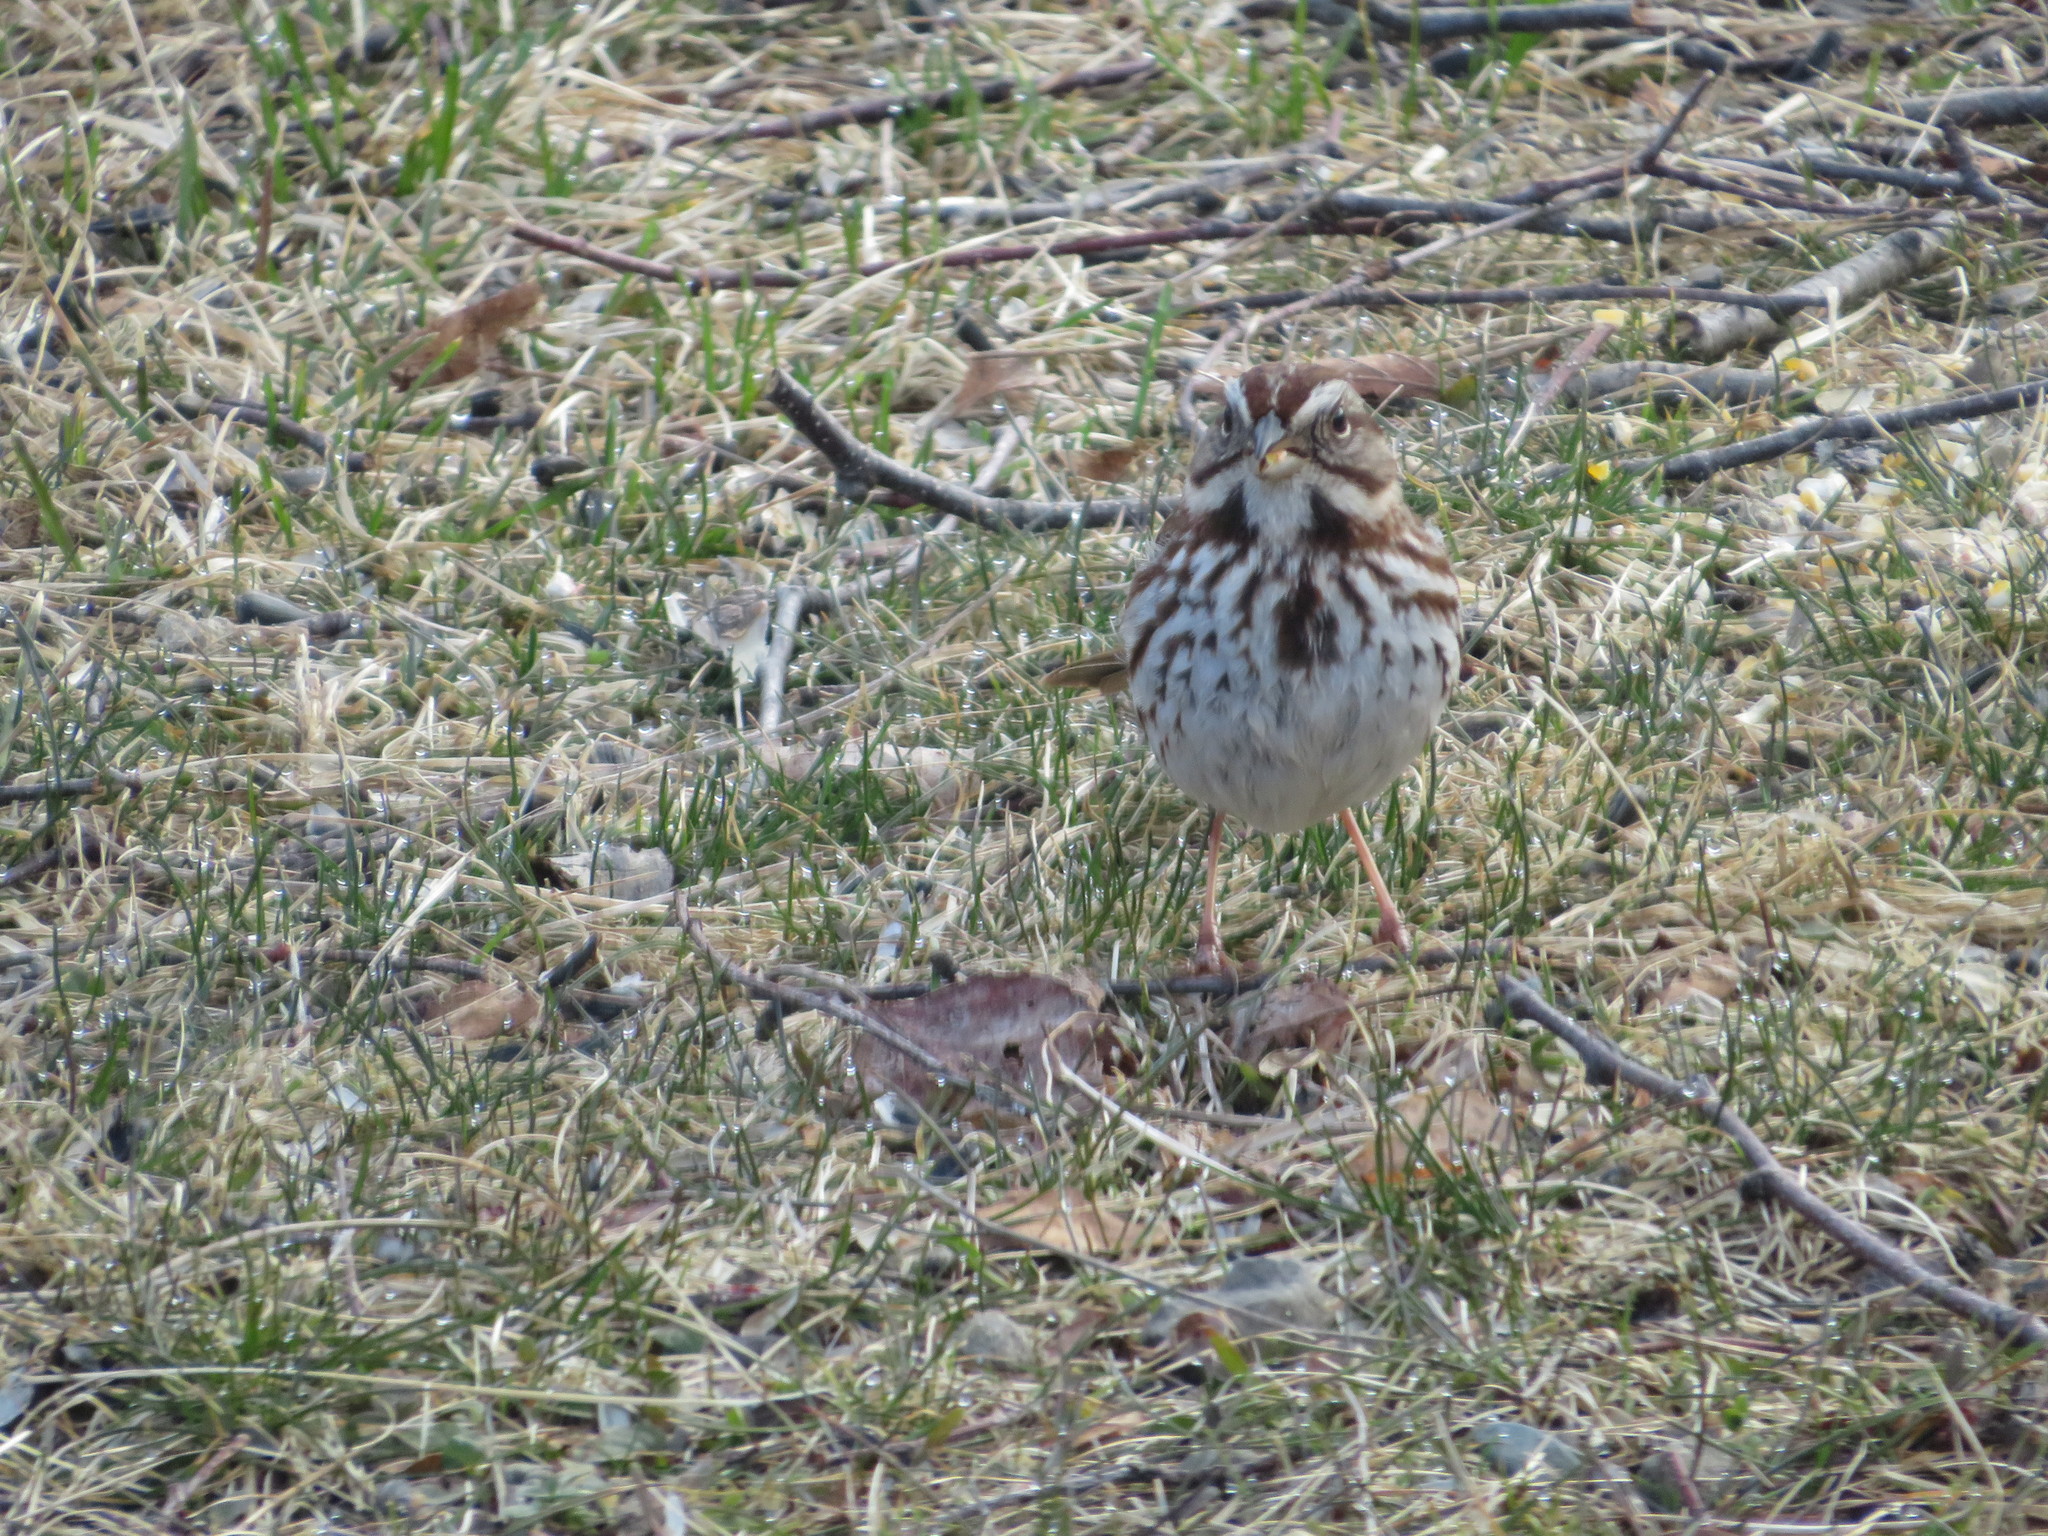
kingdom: Animalia
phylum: Chordata
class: Aves
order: Passeriformes
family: Passerellidae
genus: Melospiza
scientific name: Melospiza melodia
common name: Song sparrow
